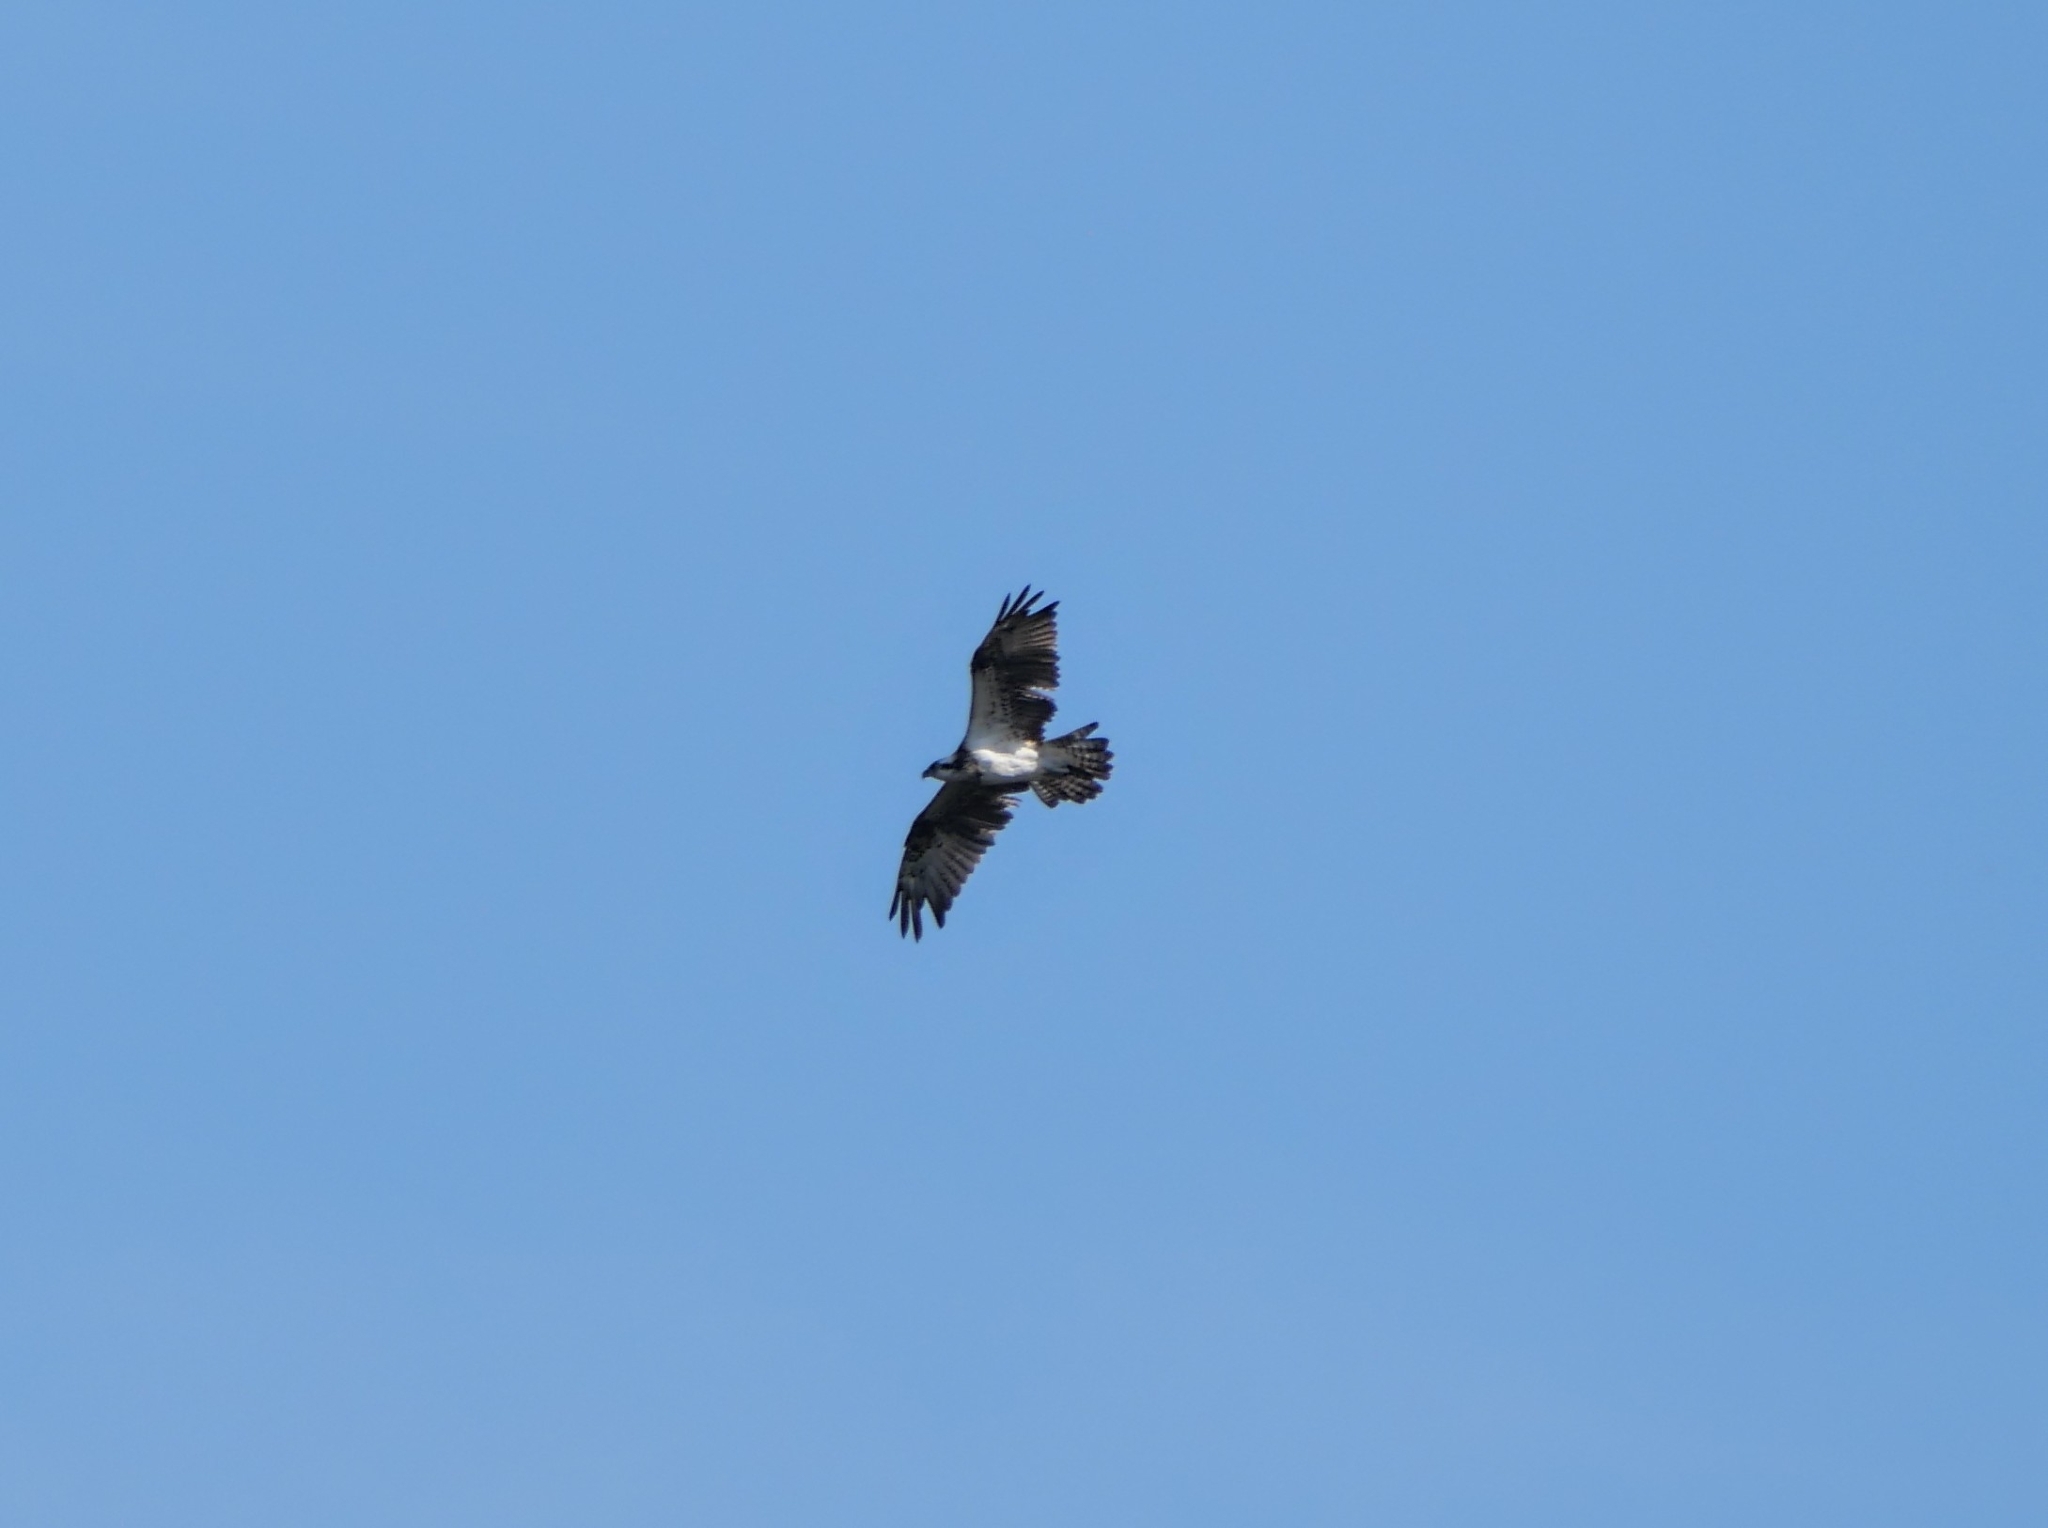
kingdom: Animalia
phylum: Chordata
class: Aves
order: Accipitriformes
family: Pandionidae
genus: Pandion
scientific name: Pandion haliaetus
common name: Osprey
